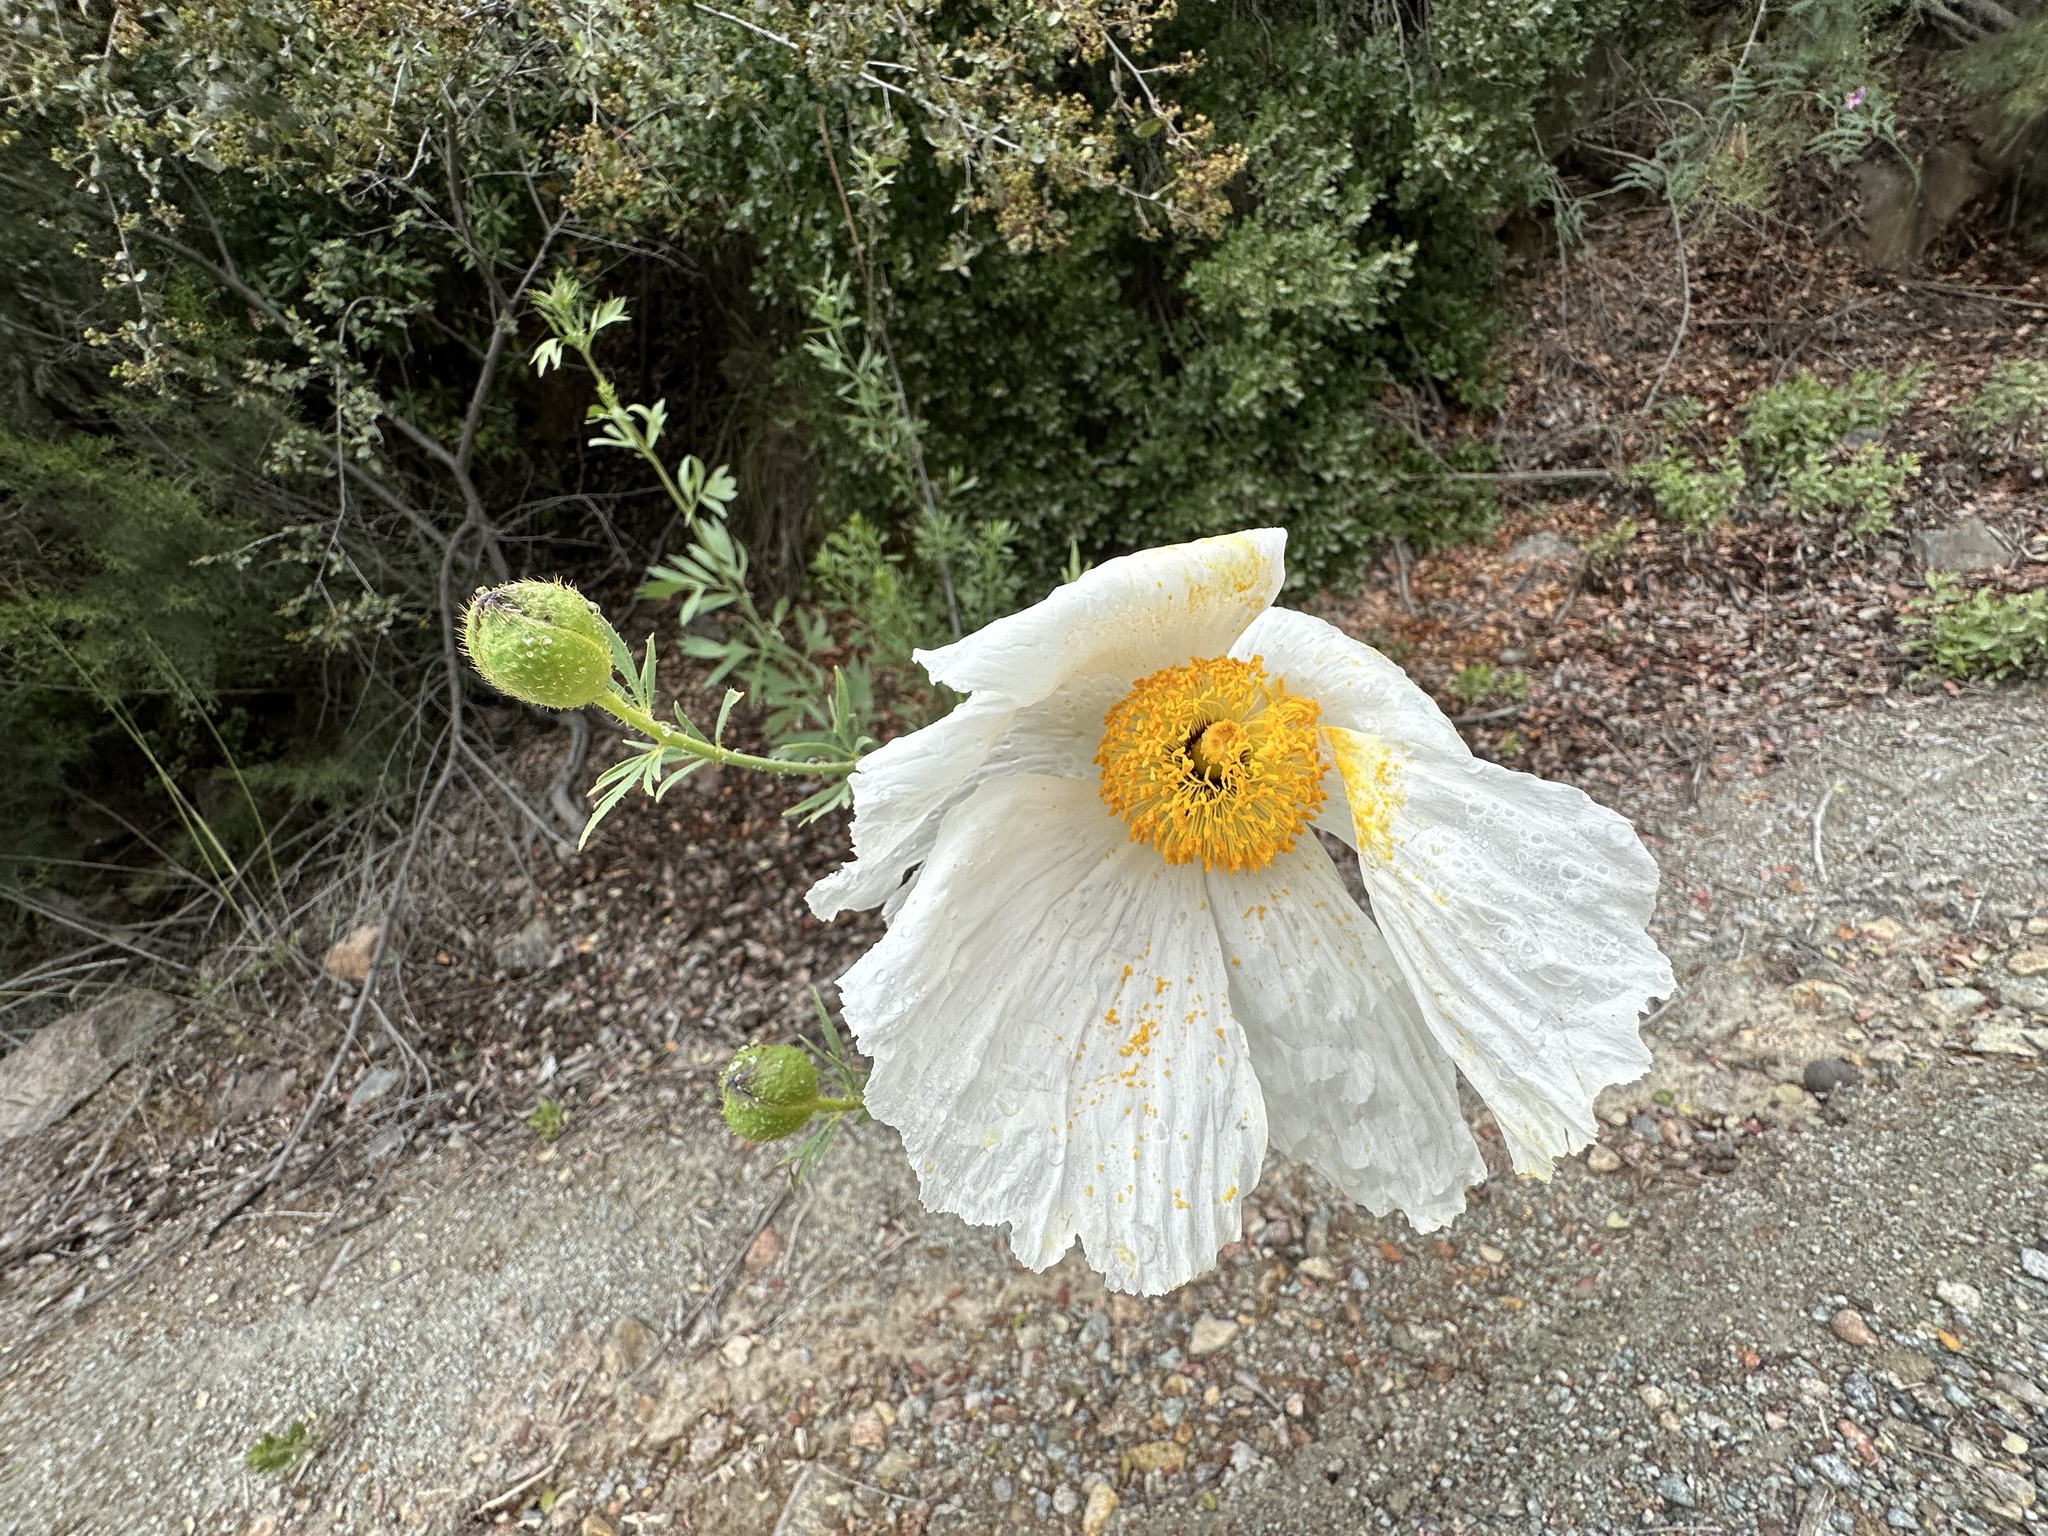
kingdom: Plantae
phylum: Tracheophyta
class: Magnoliopsida
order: Ranunculales
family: Papaveraceae
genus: Romneya
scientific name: Romneya trichocalyx
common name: Hairy matilija-poppy
